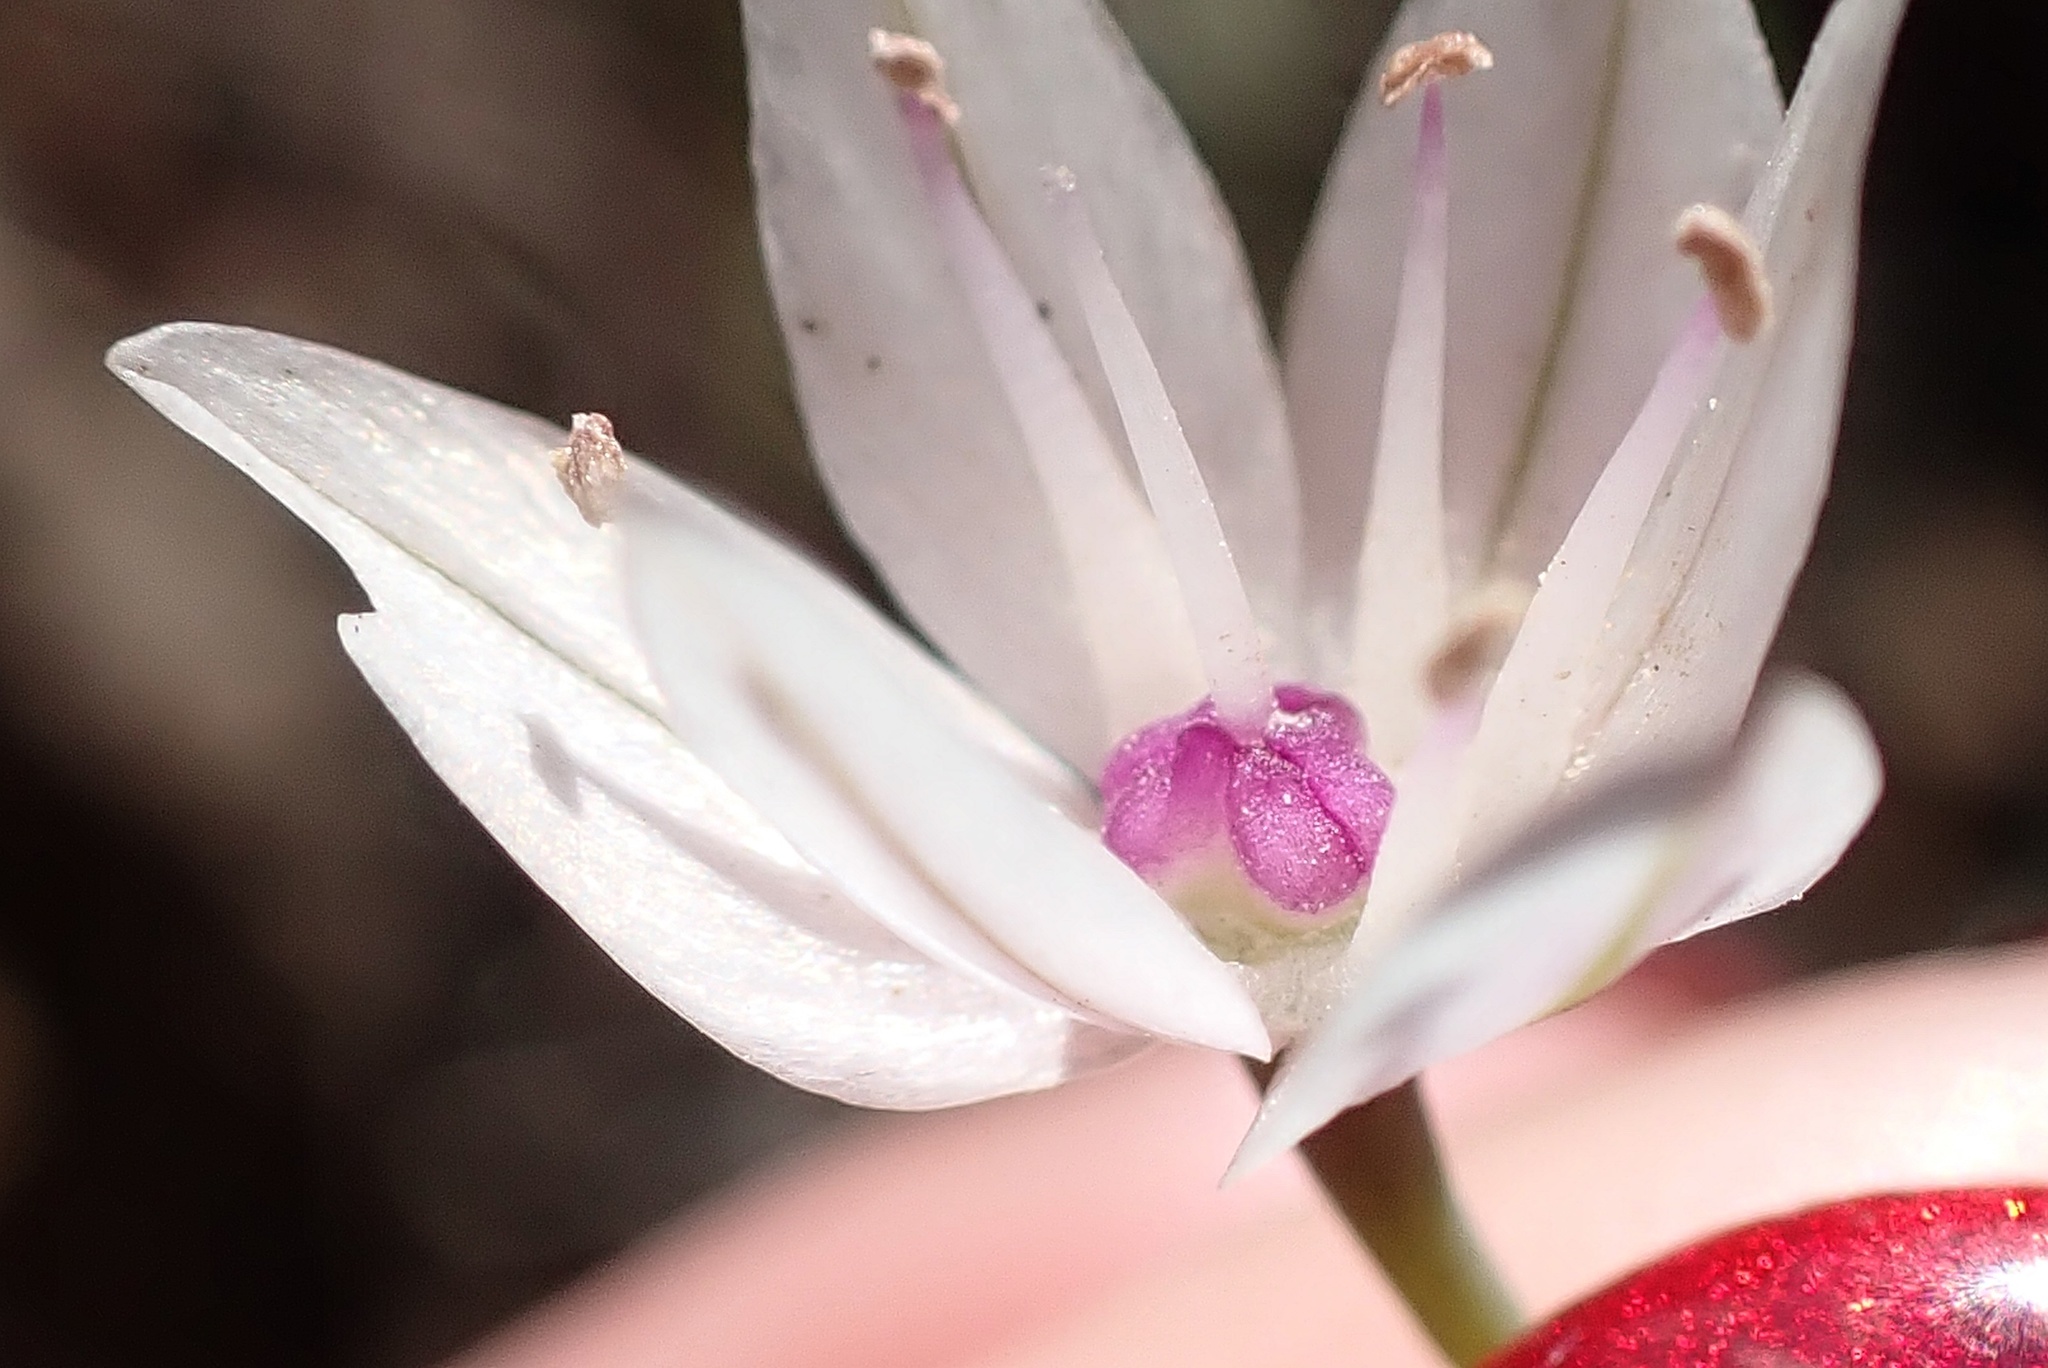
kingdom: Plantae
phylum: Tracheophyta
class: Liliopsida
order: Asparagales
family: Amaryllidaceae
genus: Allium
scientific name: Allium praecox
